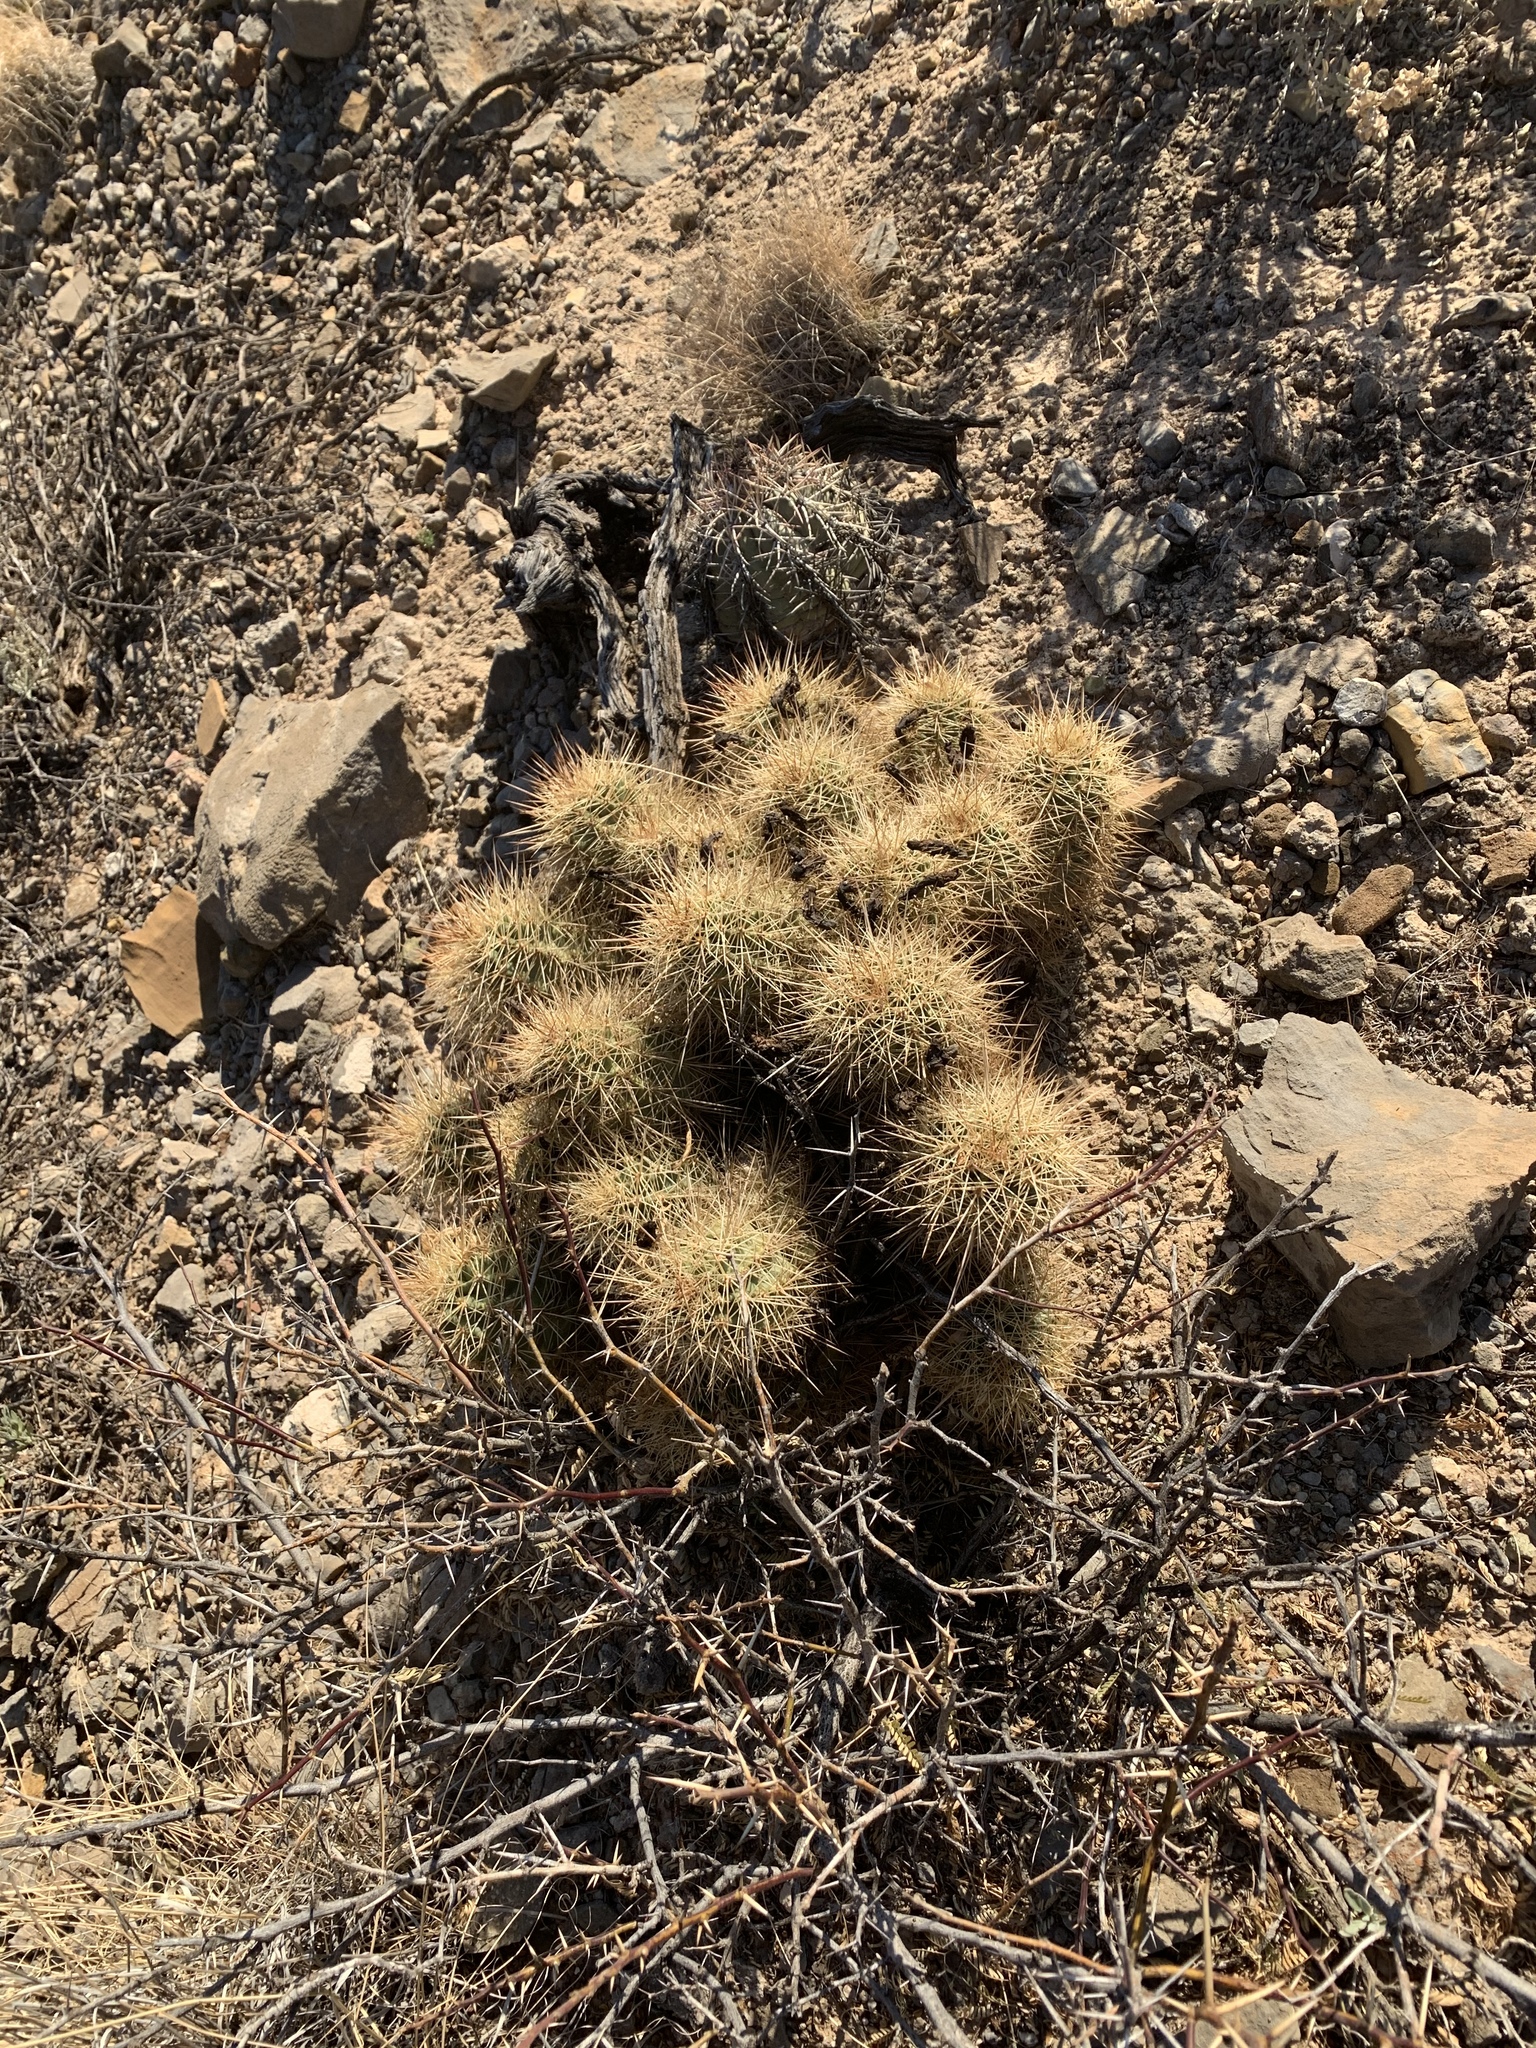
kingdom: Plantae
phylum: Tracheophyta
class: Magnoliopsida
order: Caryophyllales
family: Cactaceae
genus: Echinocereus
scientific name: Echinocereus coccineus
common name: Scarlet hedgehog cactus
